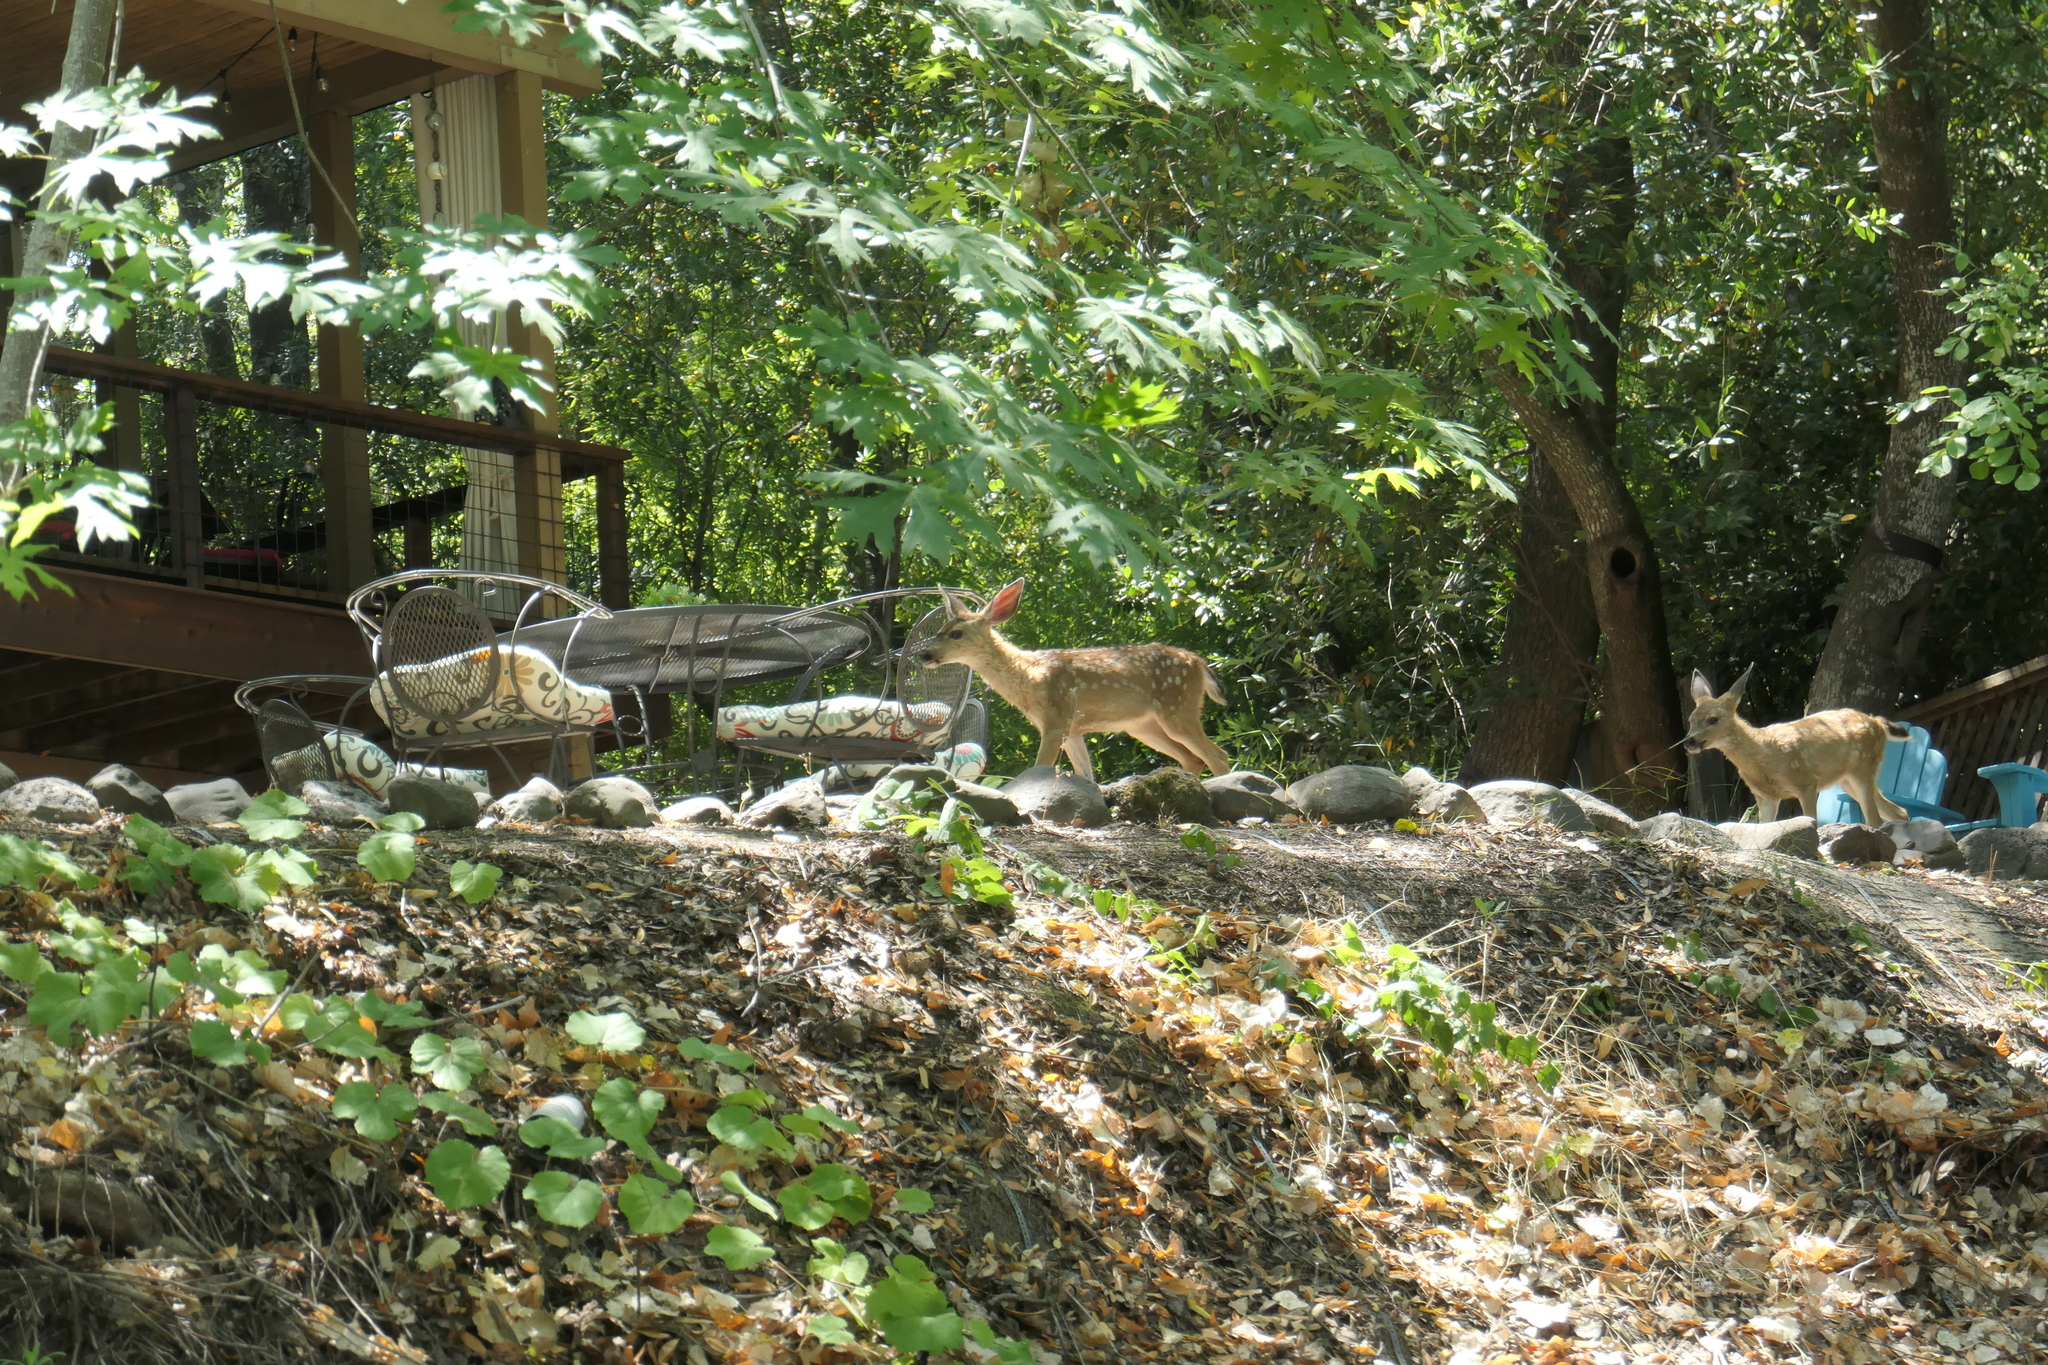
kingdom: Animalia
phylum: Chordata
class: Mammalia
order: Artiodactyla
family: Cervidae
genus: Odocoileus
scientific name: Odocoileus hemionus
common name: Mule deer
